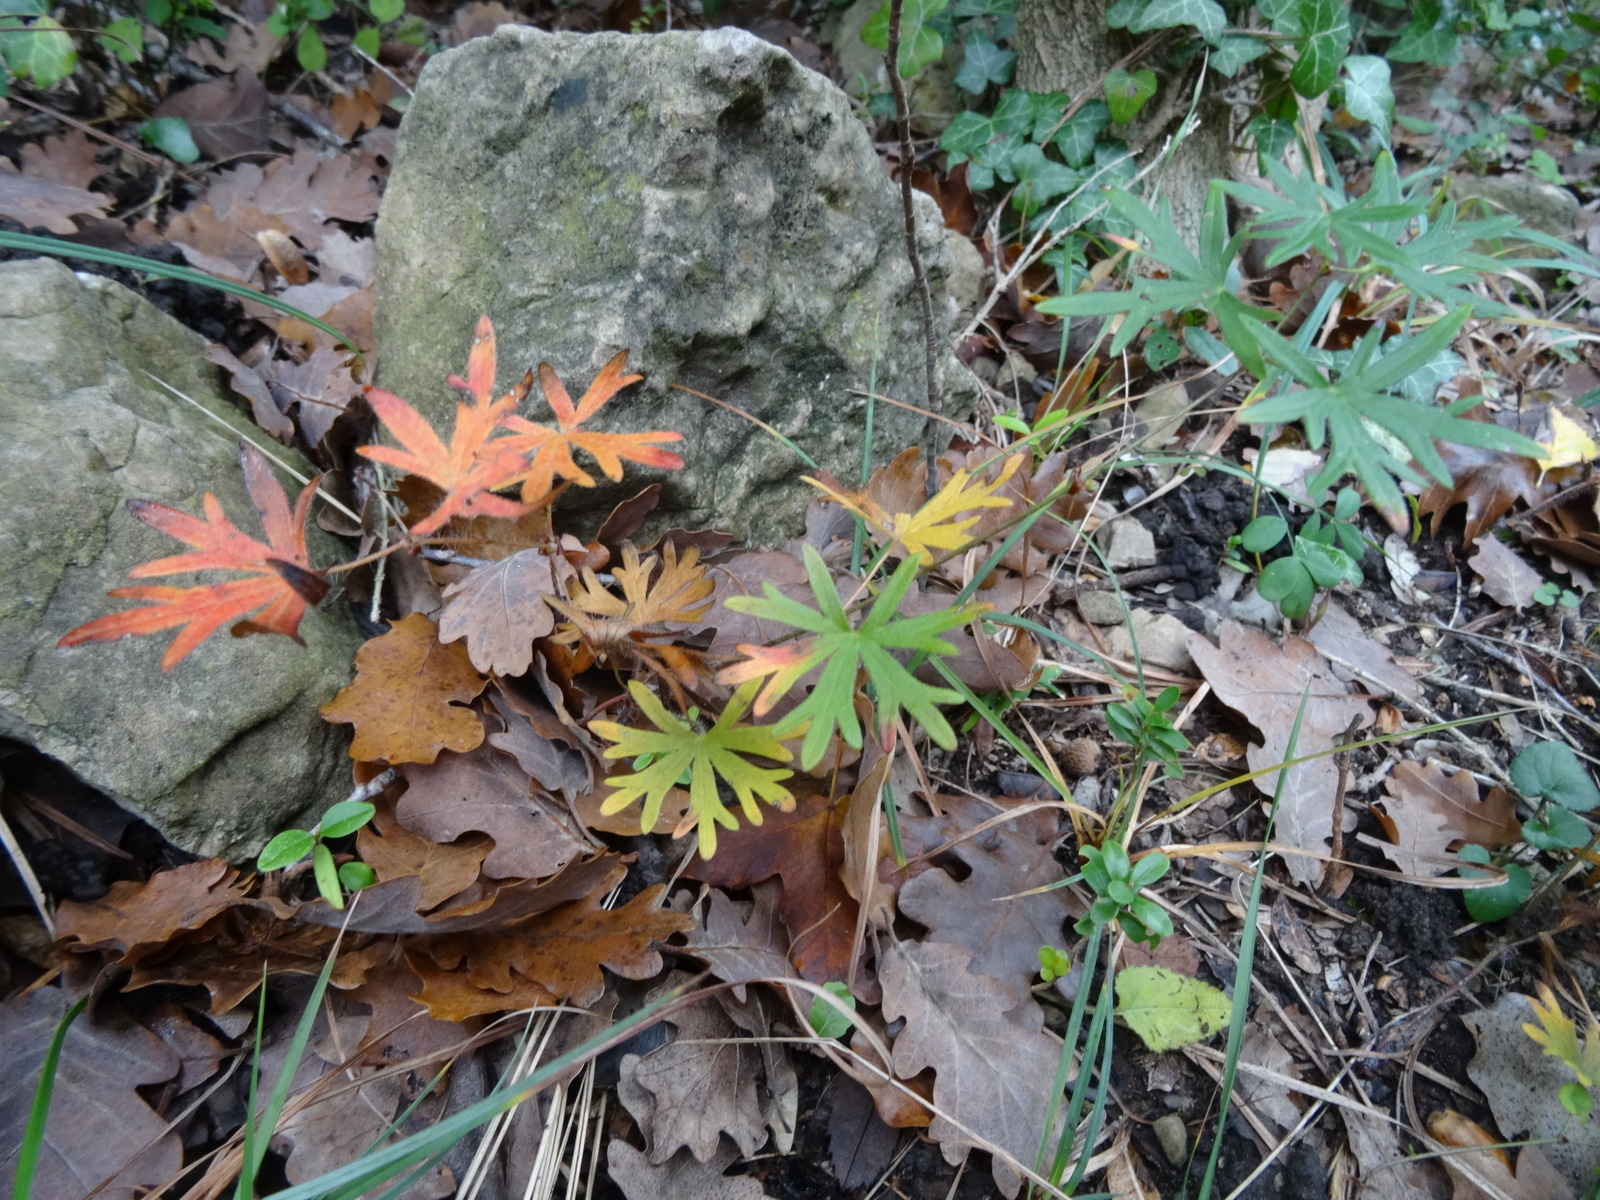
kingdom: Plantae
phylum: Tracheophyta
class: Magnoliopsida
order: Geraniales
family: Geraniaceae
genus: Geranium
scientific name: Geranium sanguineum
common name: Bloody crane's-bill
